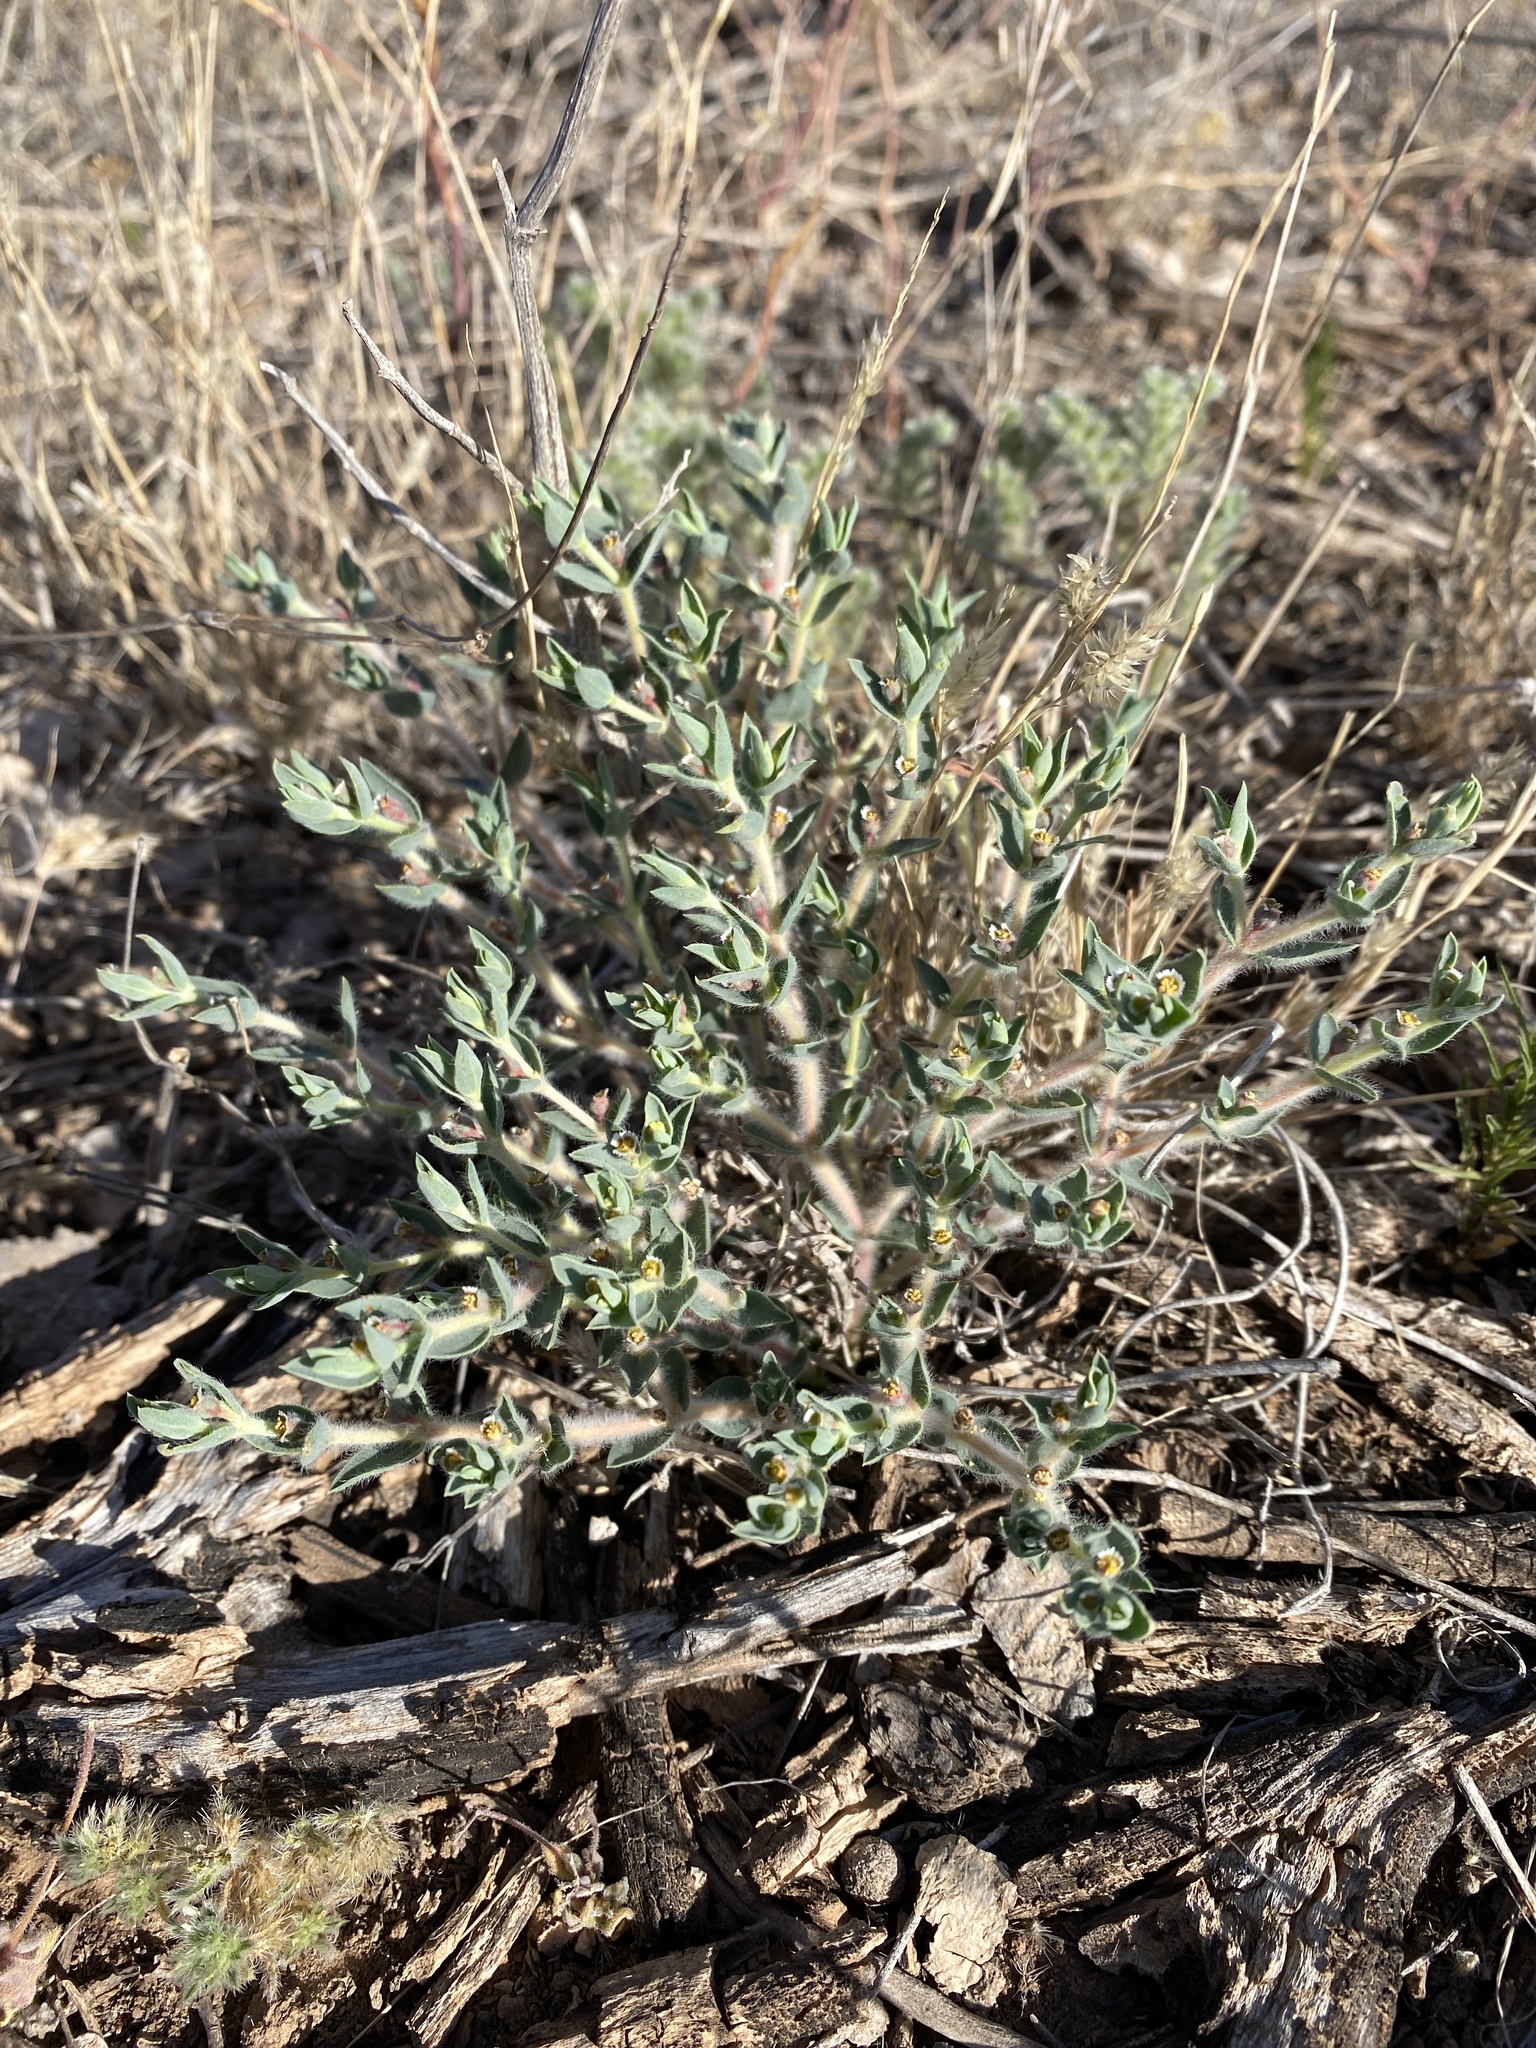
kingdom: Plantae
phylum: Tracheophyta
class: Magnoliopsida
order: Malpighiales
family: Euphorbiaceae
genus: Euphorbia
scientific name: Euphorbia acuta
